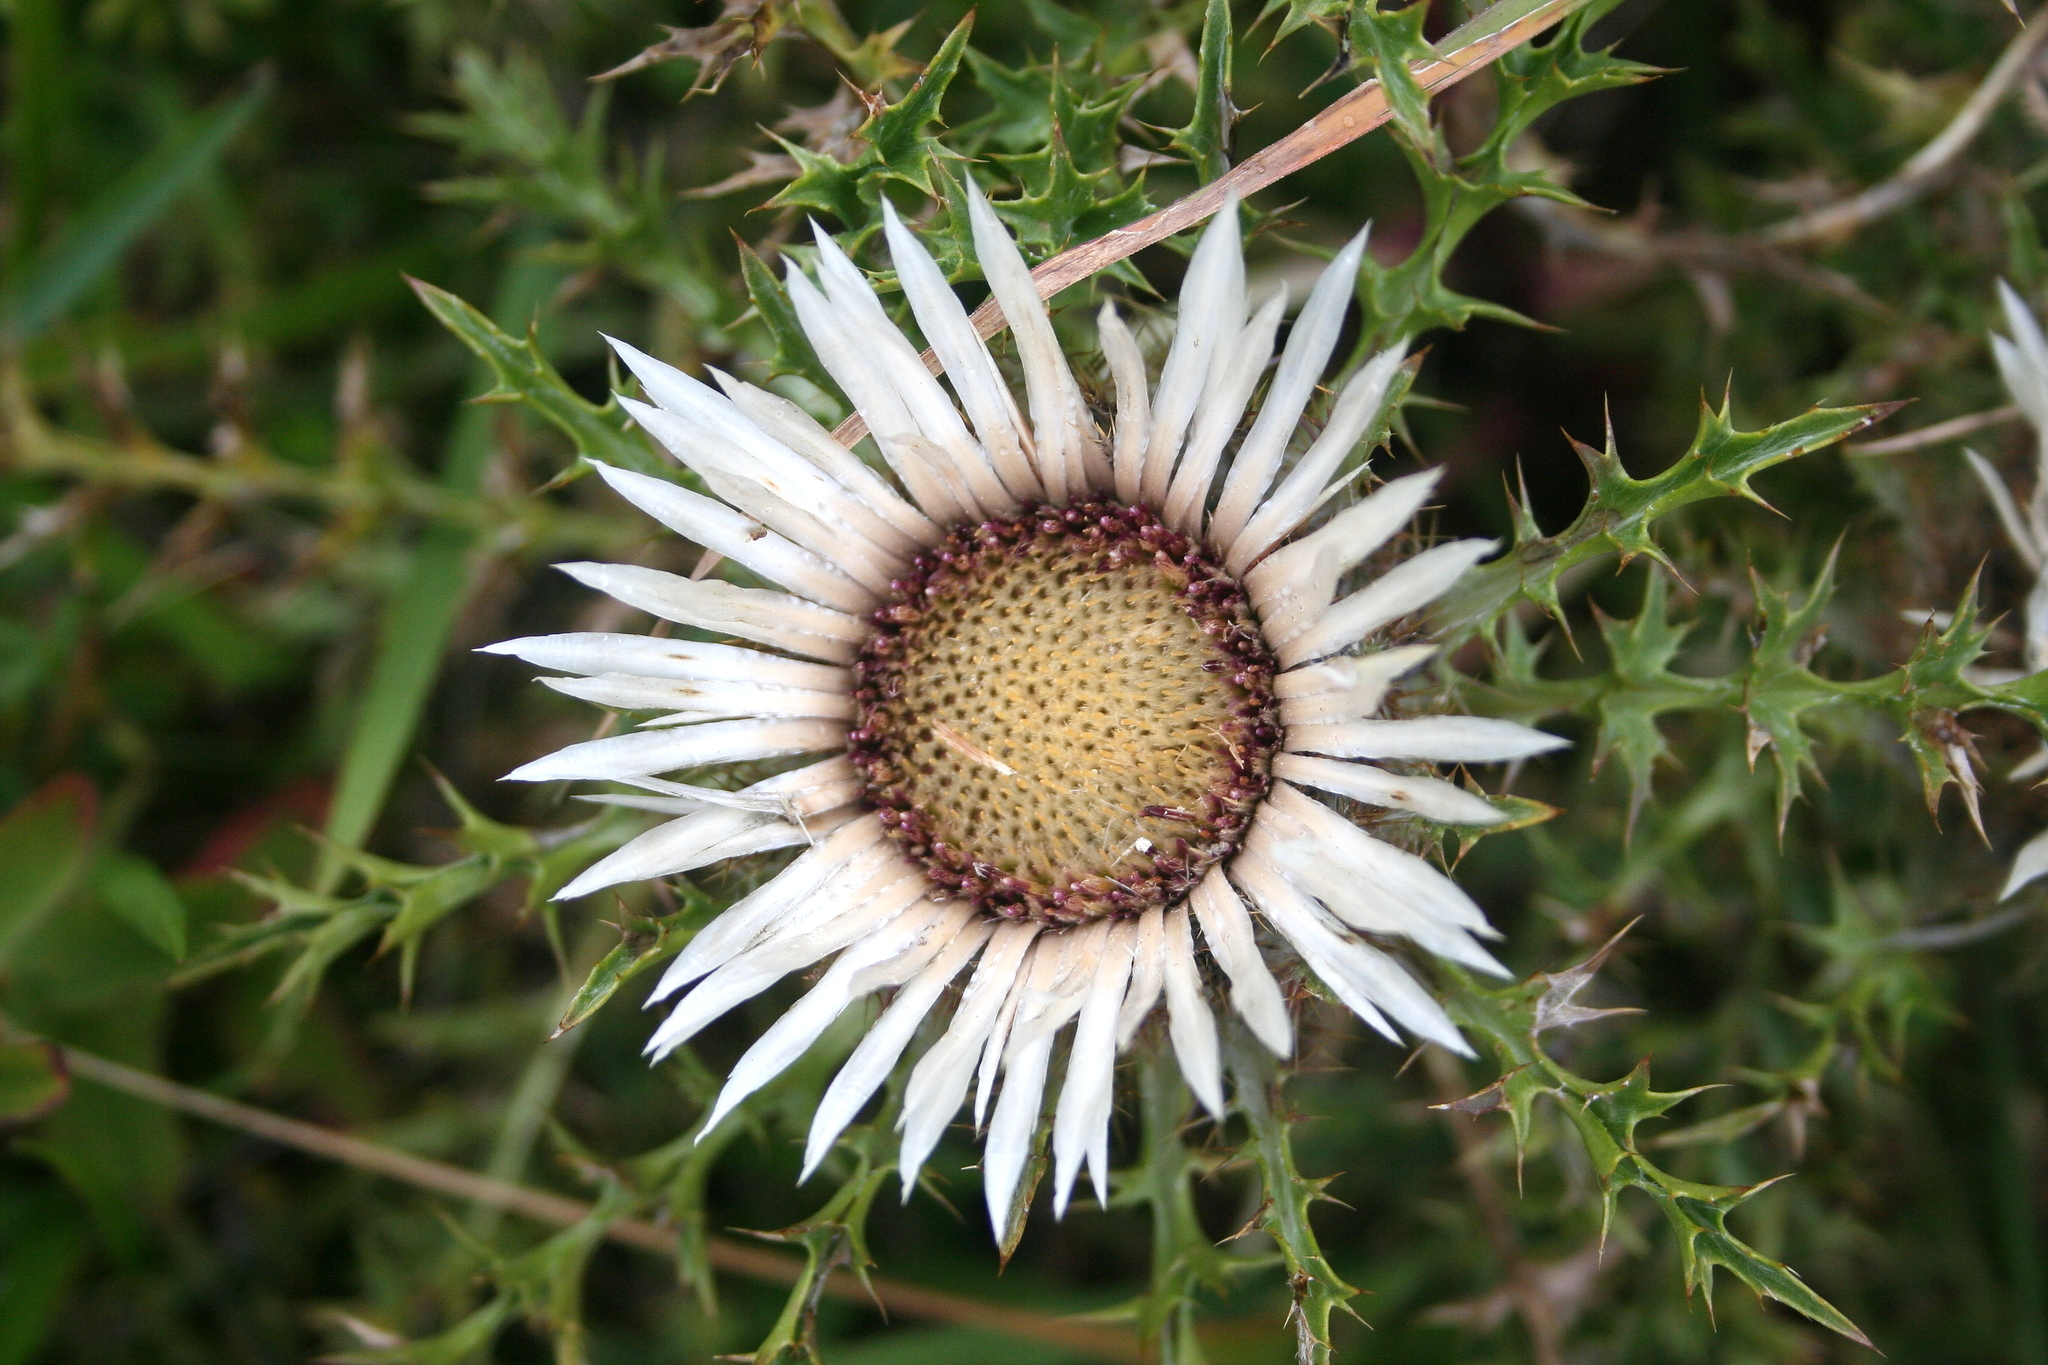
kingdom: Plantae
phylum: Tracheophyta
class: Magnoliopsida
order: Asterales
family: Asteraceae
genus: Carlina
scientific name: Carlina acaulis
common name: Stemless carline thistle
